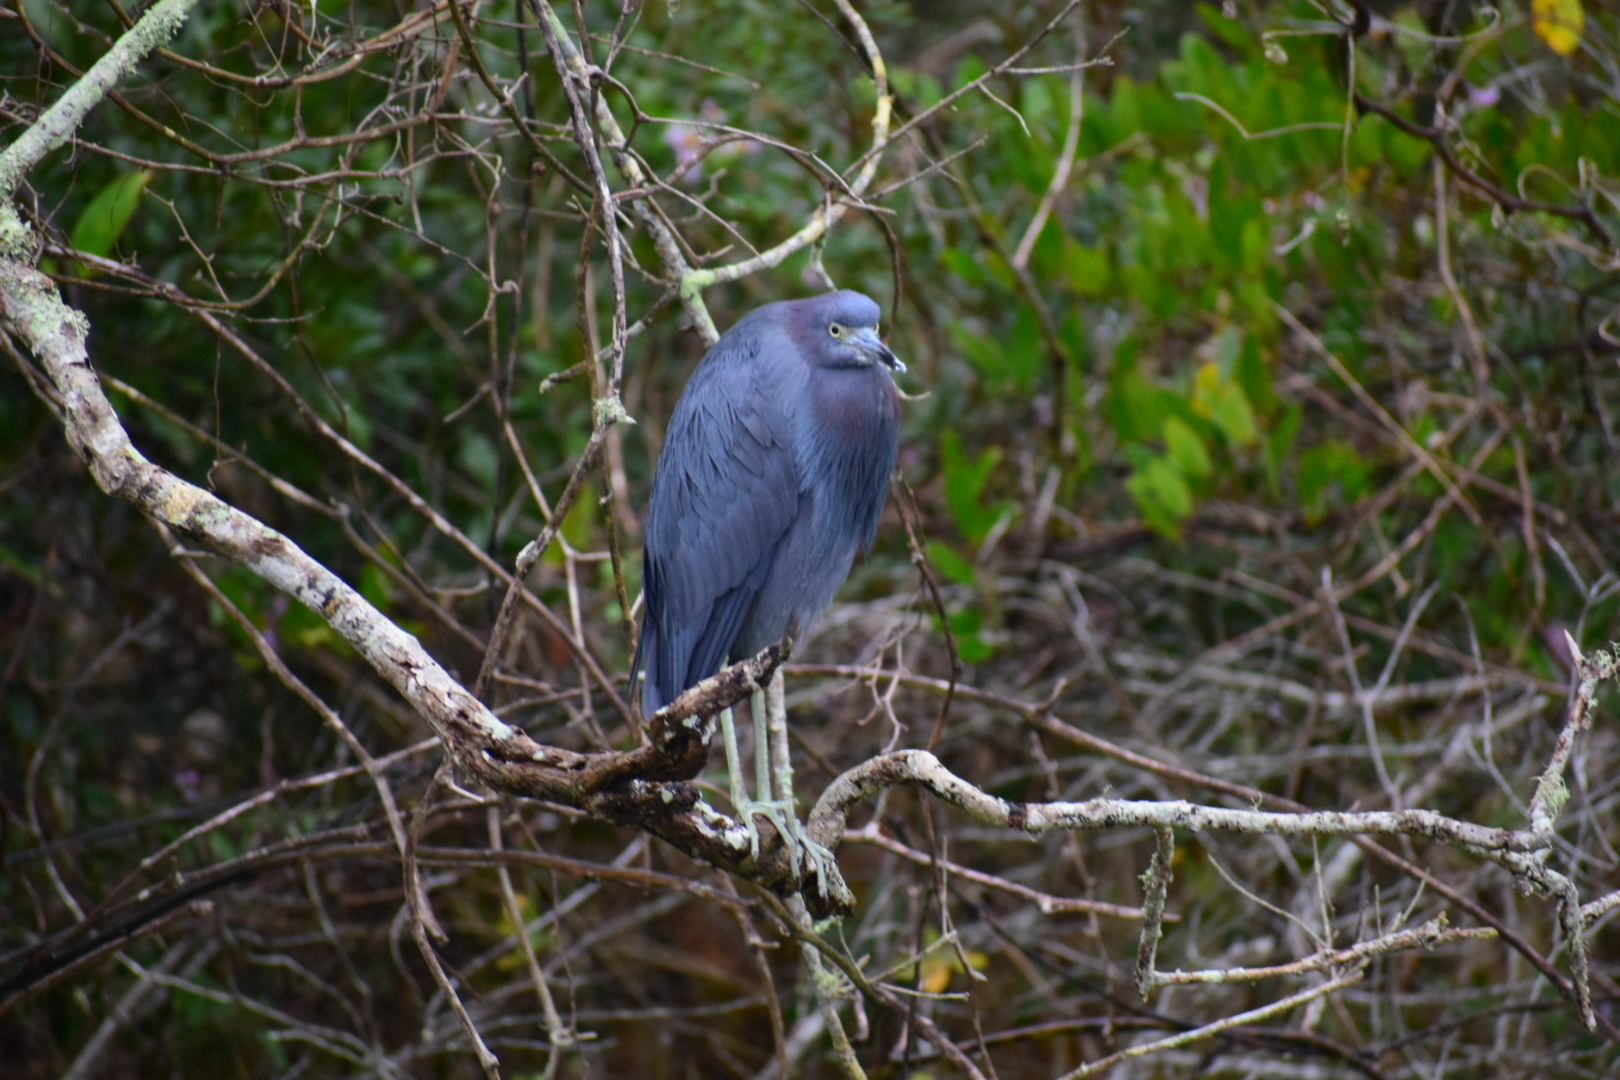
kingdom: Animalia
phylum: Chordata
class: Aves
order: Pelecaniformes
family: Ardeidae
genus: Egretta
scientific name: Egretta caerulea
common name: Little blue heron
